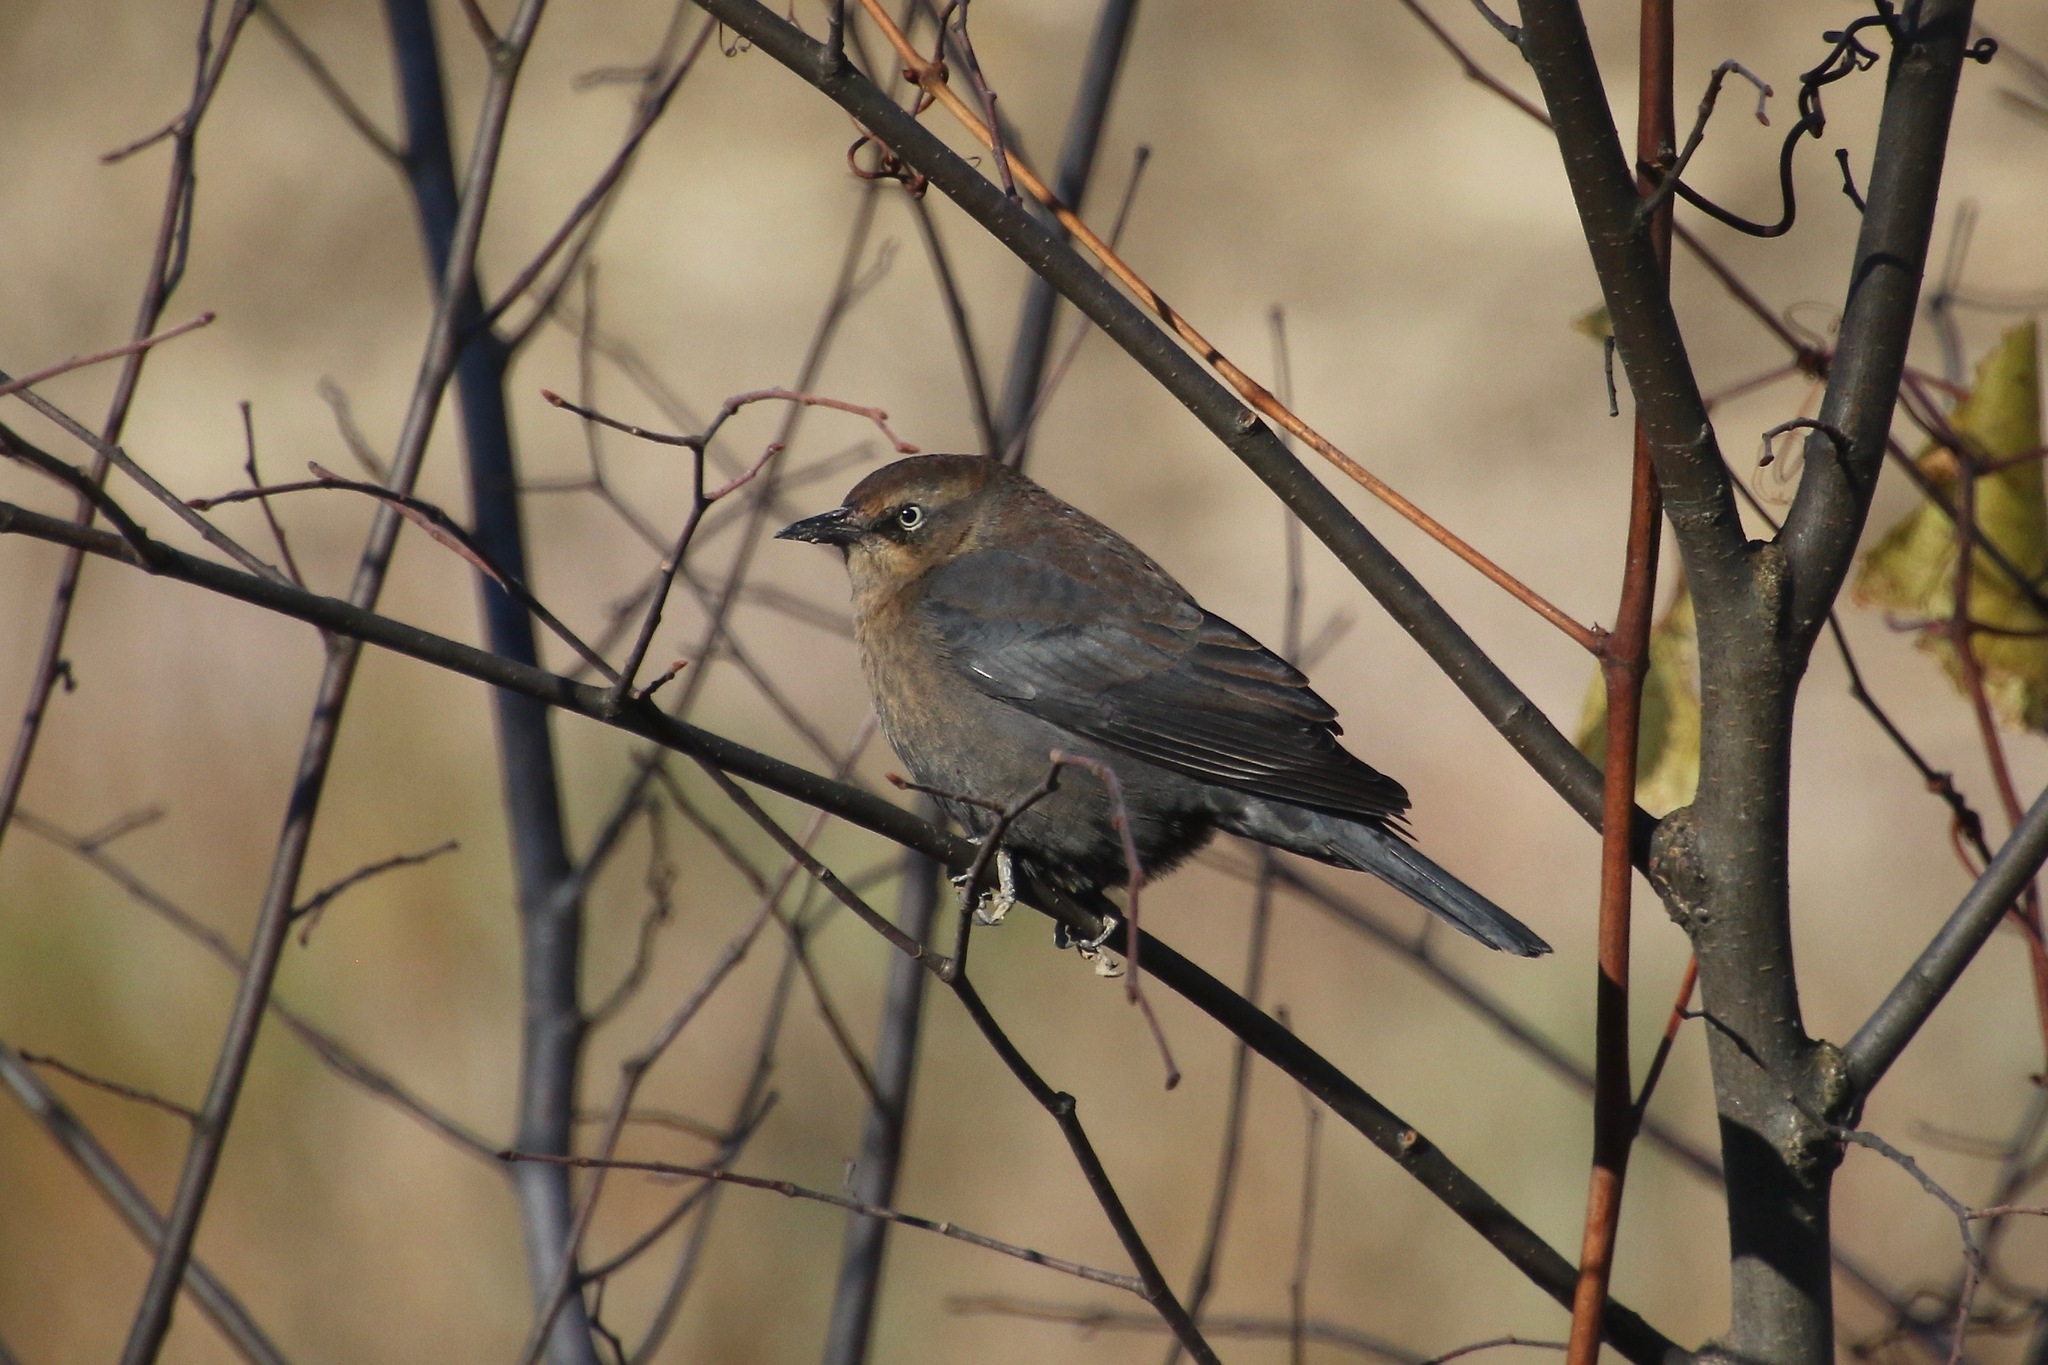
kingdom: Animalia
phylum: Chordata
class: Aves
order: Passeriformes
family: Icteridae
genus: Euphagus
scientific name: Euphagus carolinus
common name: Rusty blackbird
